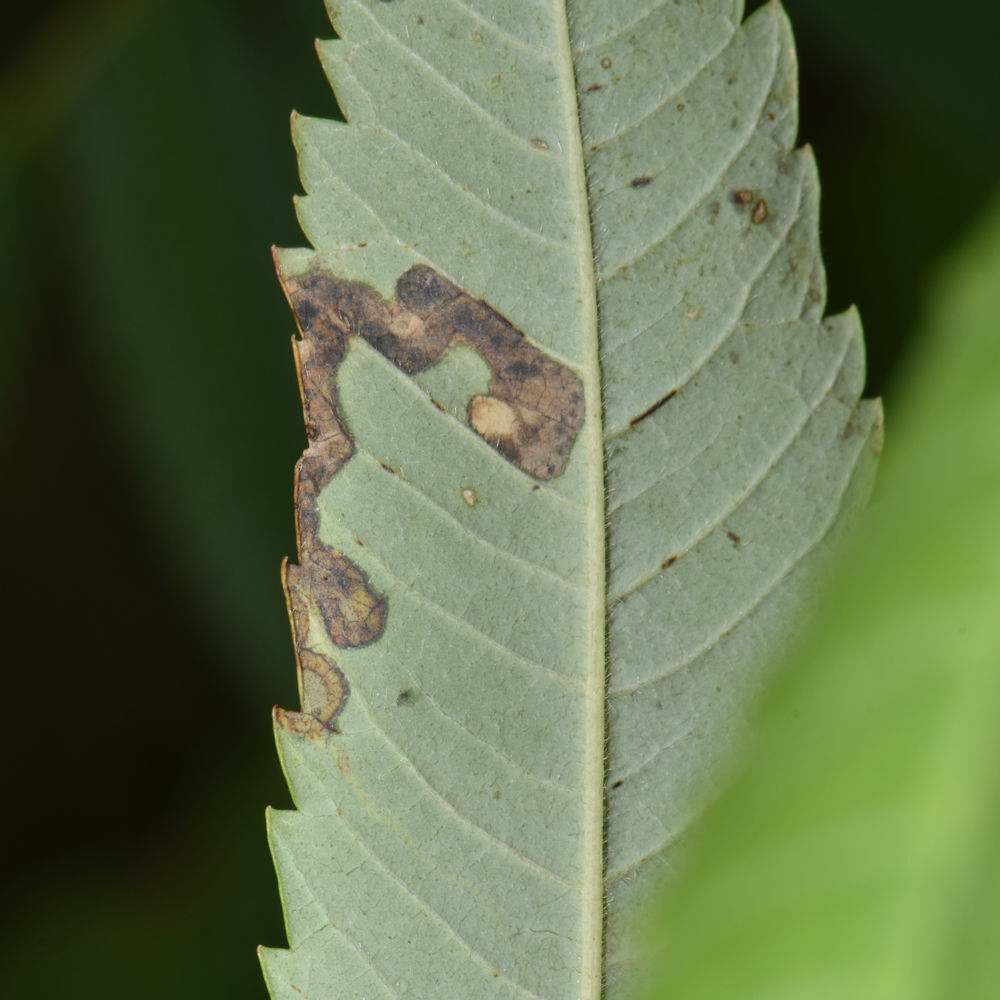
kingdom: Animalia
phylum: Arthropoda
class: Insecta
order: Lepidoptera
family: Nepticulidae
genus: Stigmella
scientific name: Stigmella intermedia
